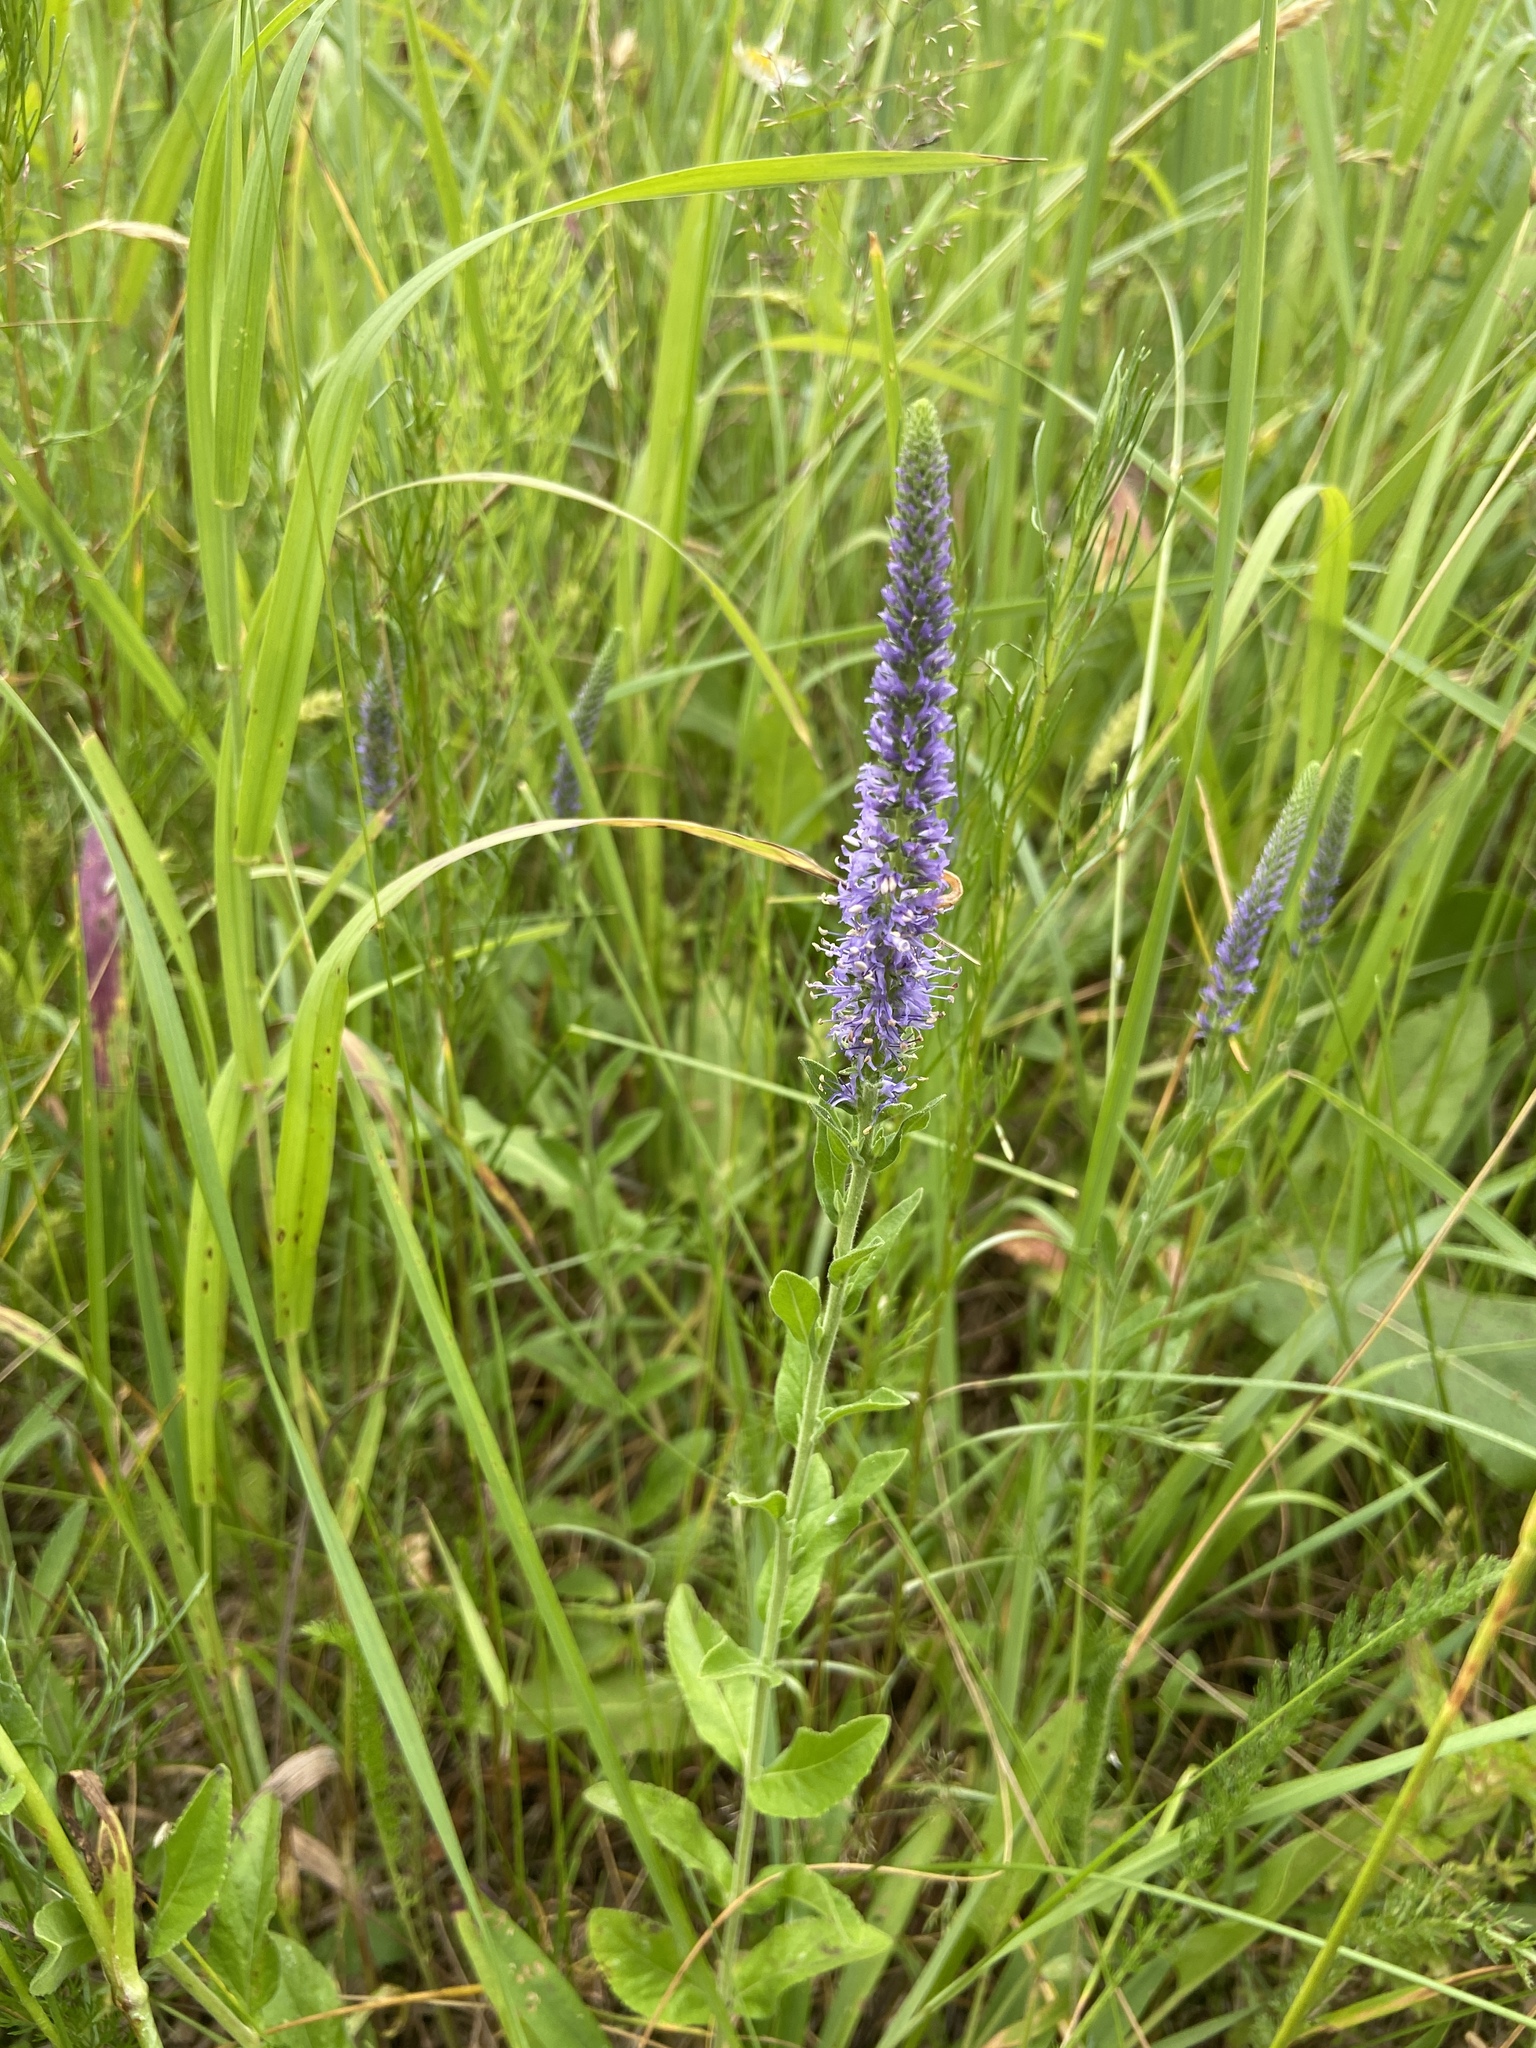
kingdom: Plantae
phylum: Tracheophyta
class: Magnoliopsida
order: Lamiales
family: Plantaginaceae
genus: Veronica
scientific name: Veronica spicata
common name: Spiked speedwell
